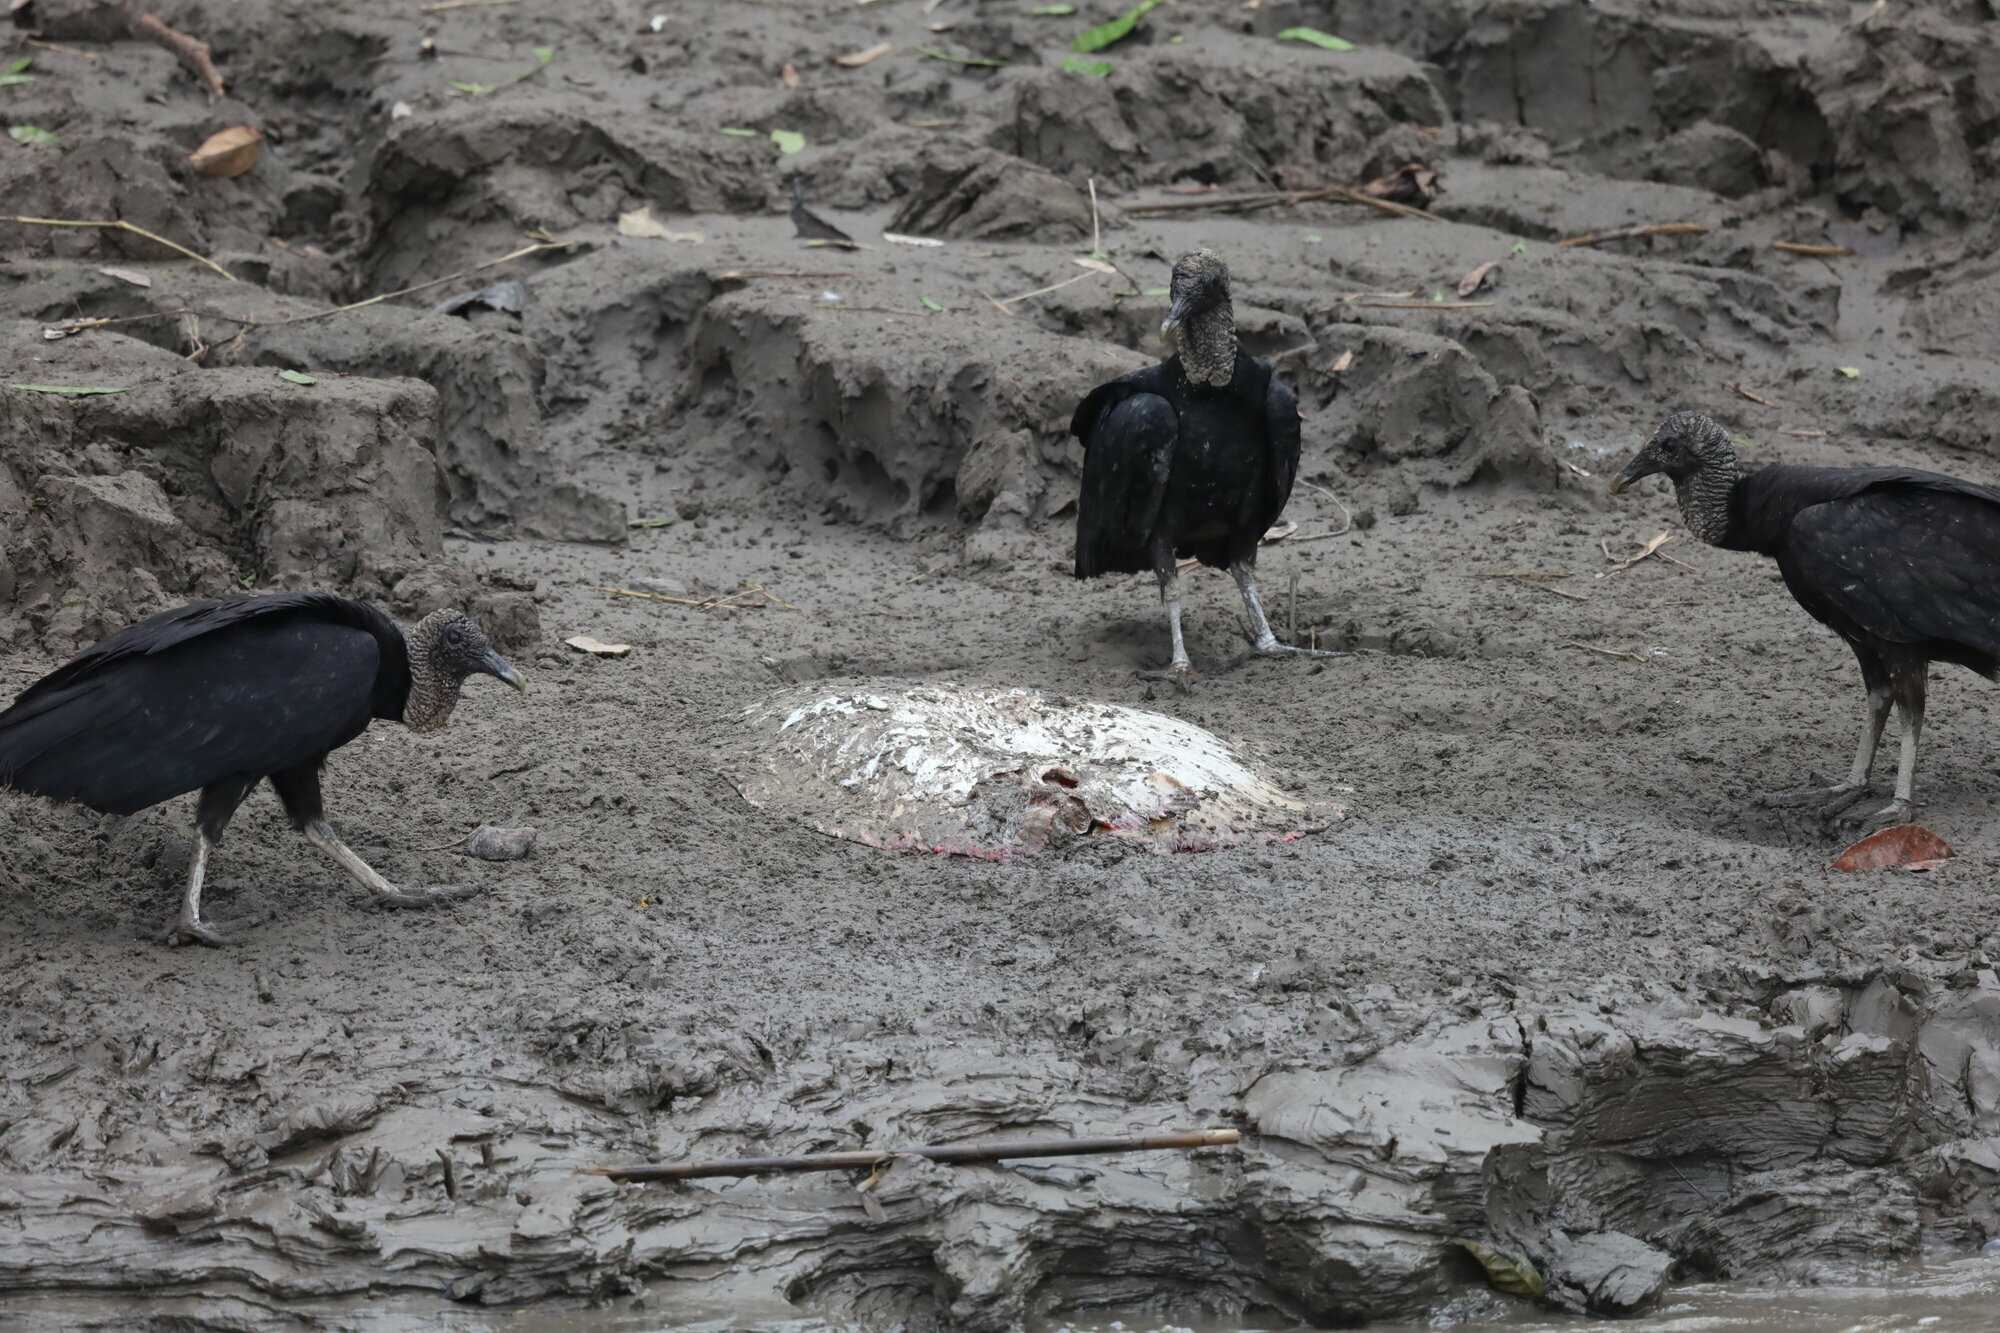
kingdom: Animalia
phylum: Chordata
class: Aves
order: Accipitriformes
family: Cathartidae
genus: Coragyps
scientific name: Coragyps atratus
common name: Black vulture
